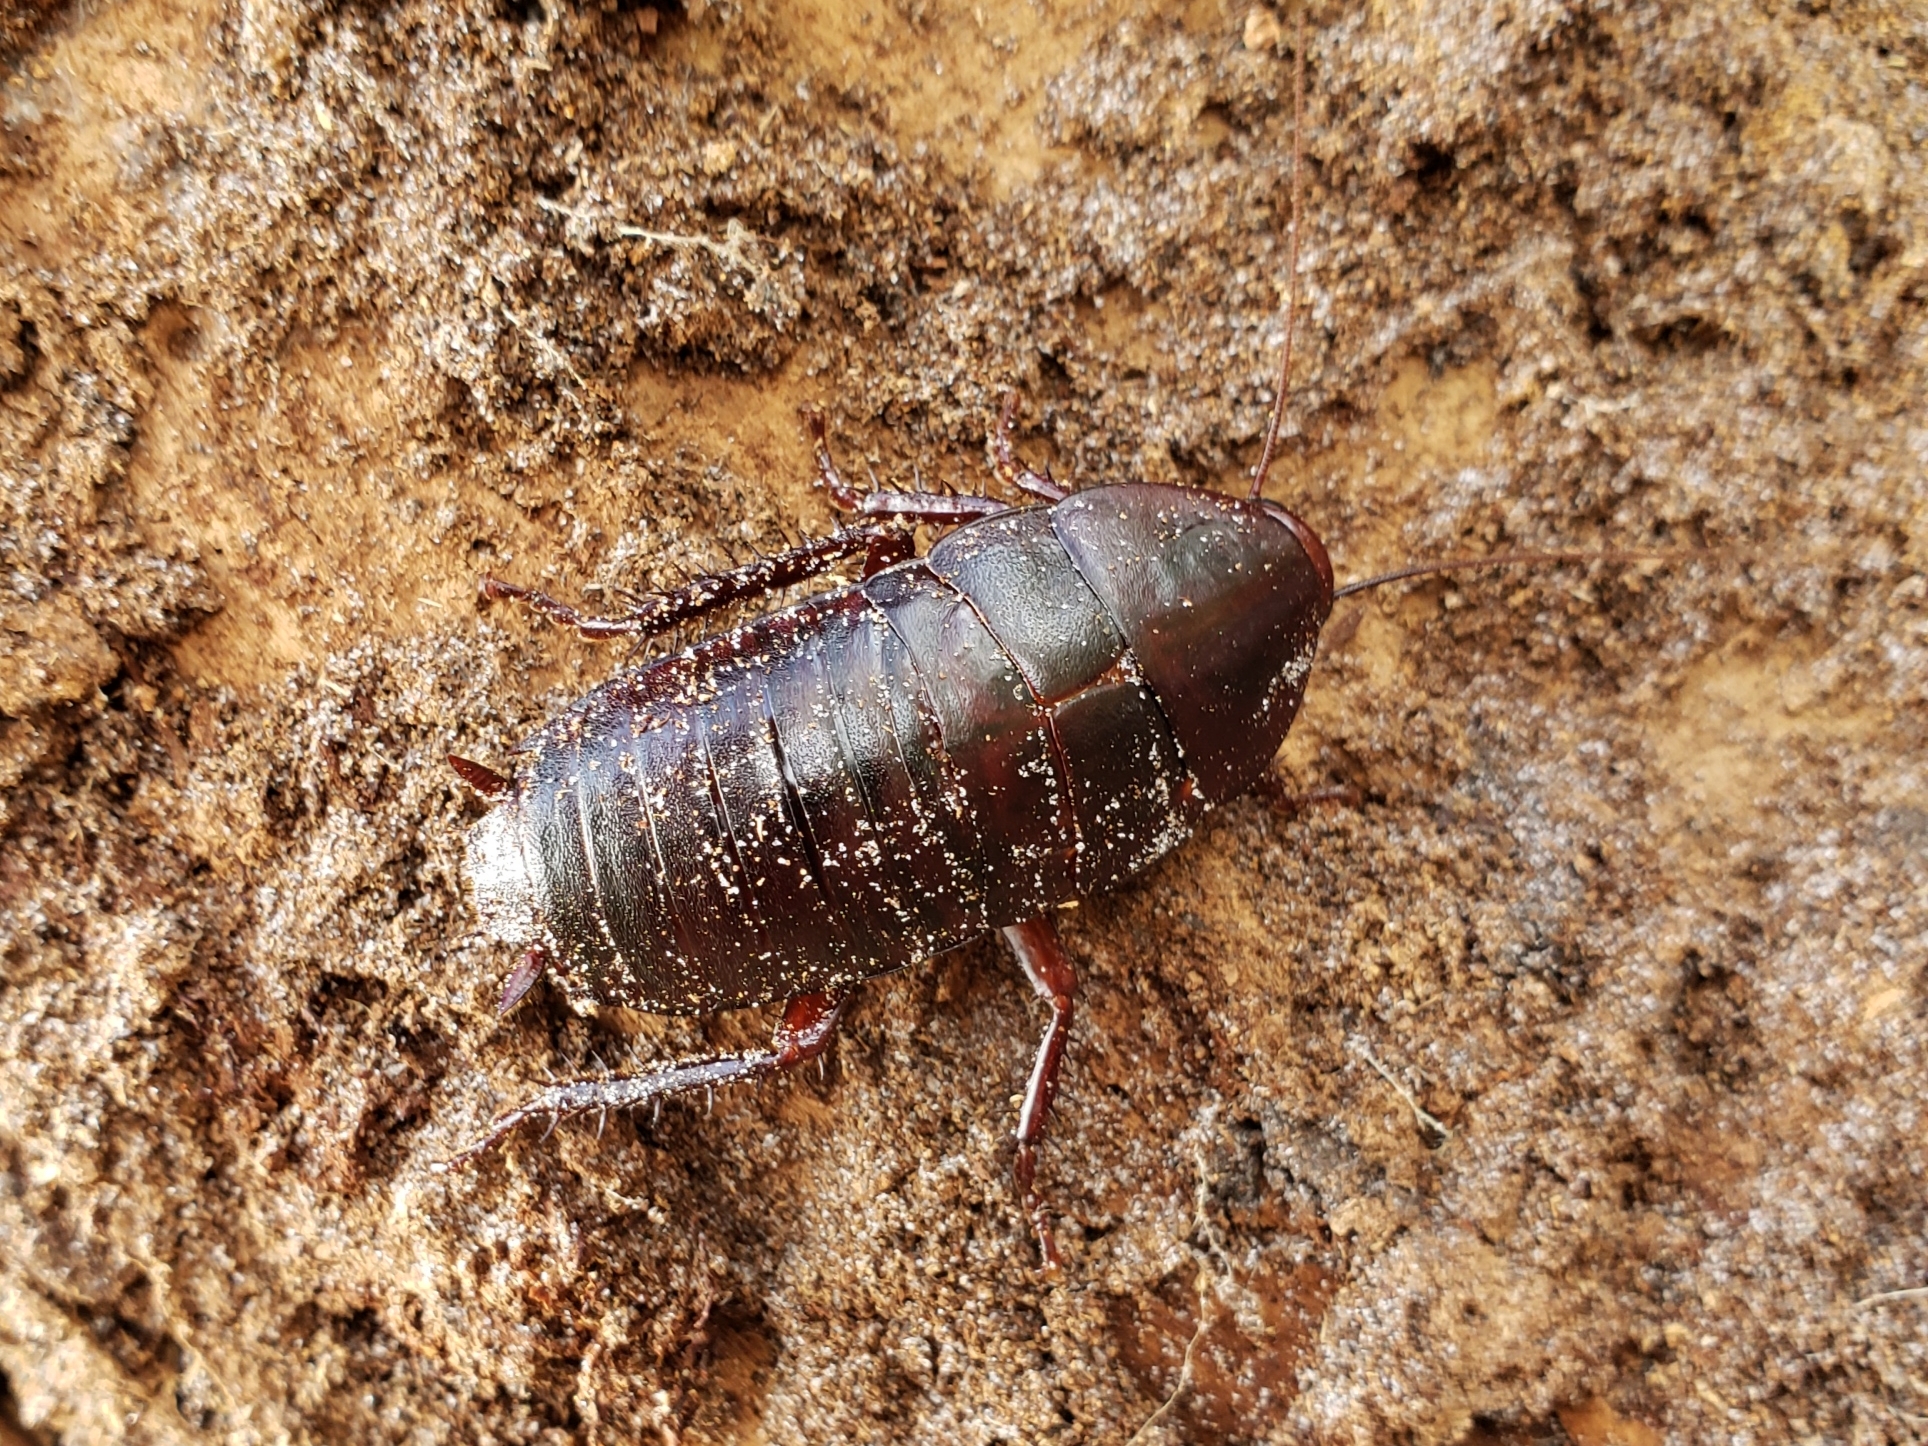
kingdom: Animalia
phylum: Arthropoda
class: Insecta
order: Blattodea
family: Blattidae
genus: Eurycotis
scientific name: Eurycotis floridana
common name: Florida cockroach
